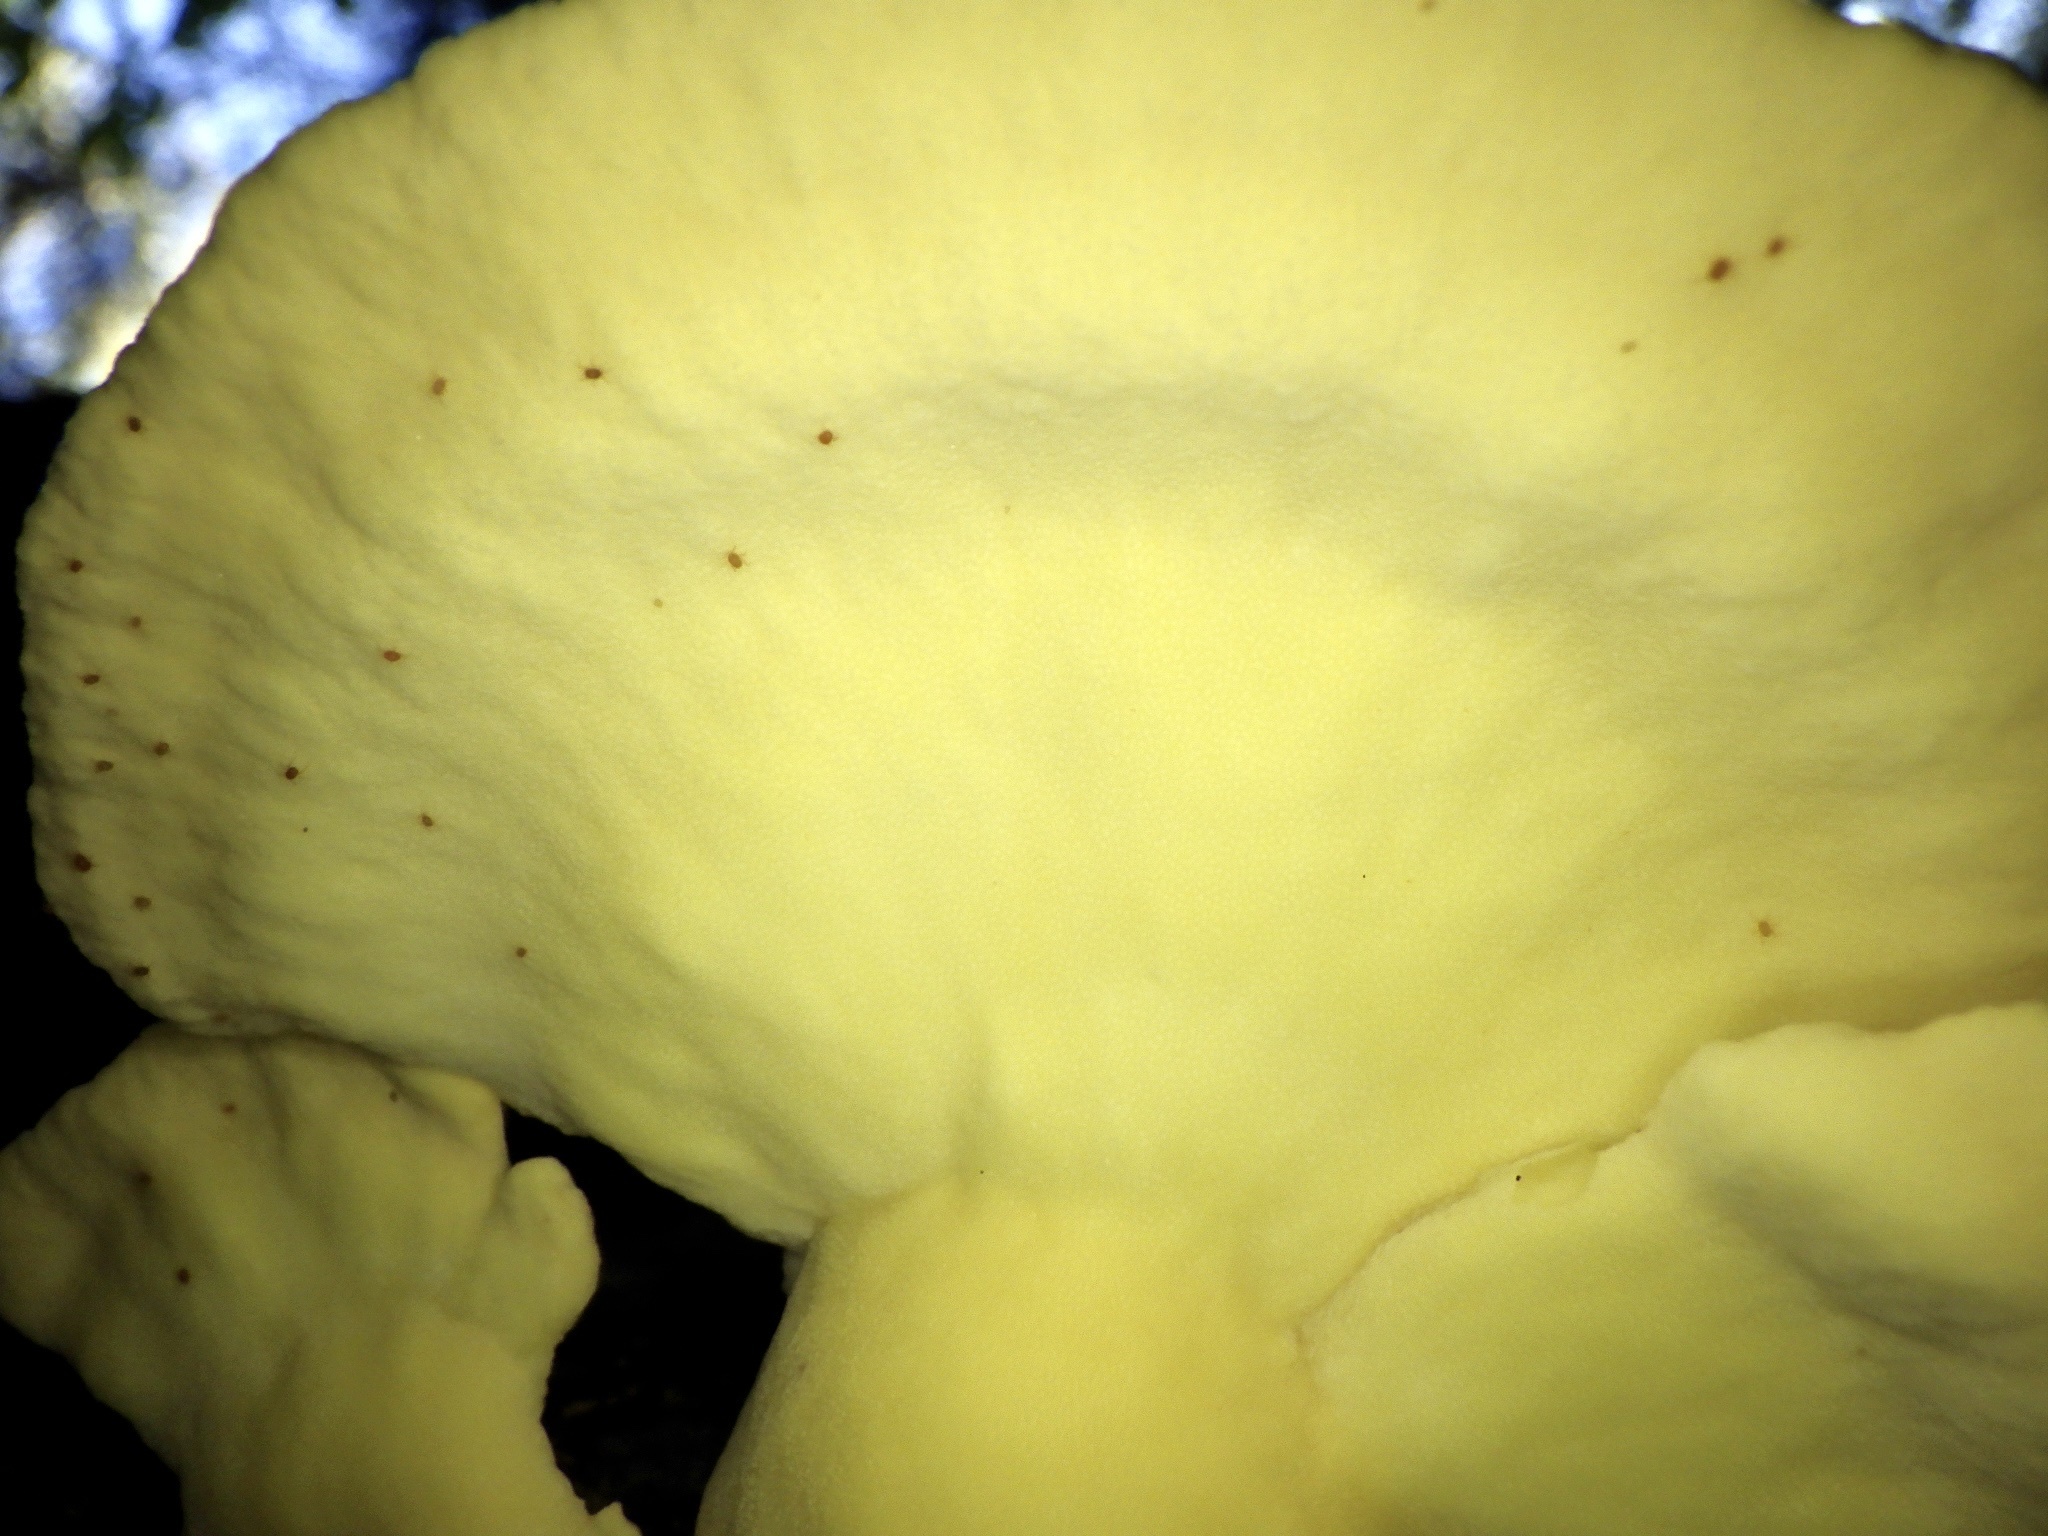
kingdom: Fungi
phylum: Basidiomycota
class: Agaricomycetes
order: Polyporales
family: Laetiporaceae
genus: Laetiporus
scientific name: Laetiporus sulphureus
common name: Chicken of the woods
